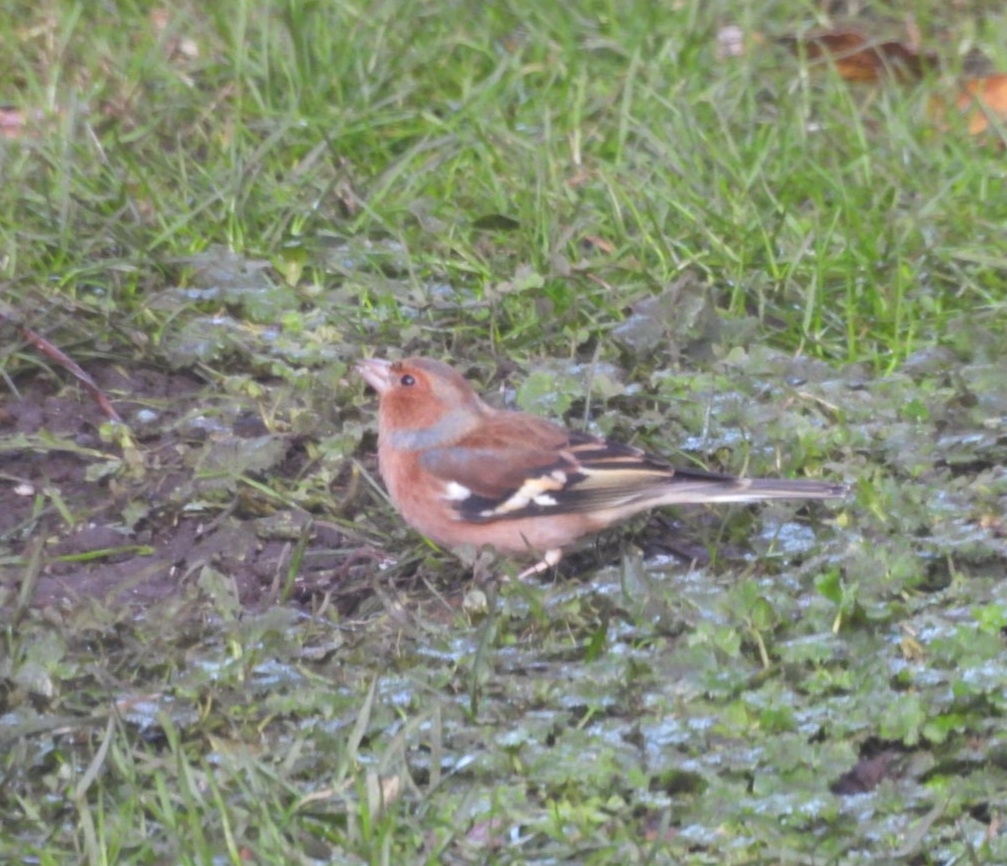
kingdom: Animalia
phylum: Chordata
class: Aves
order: Passeriformes
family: Fringillidae
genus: Fringilla
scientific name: Fringilla coelebs
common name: Common chaffinch
